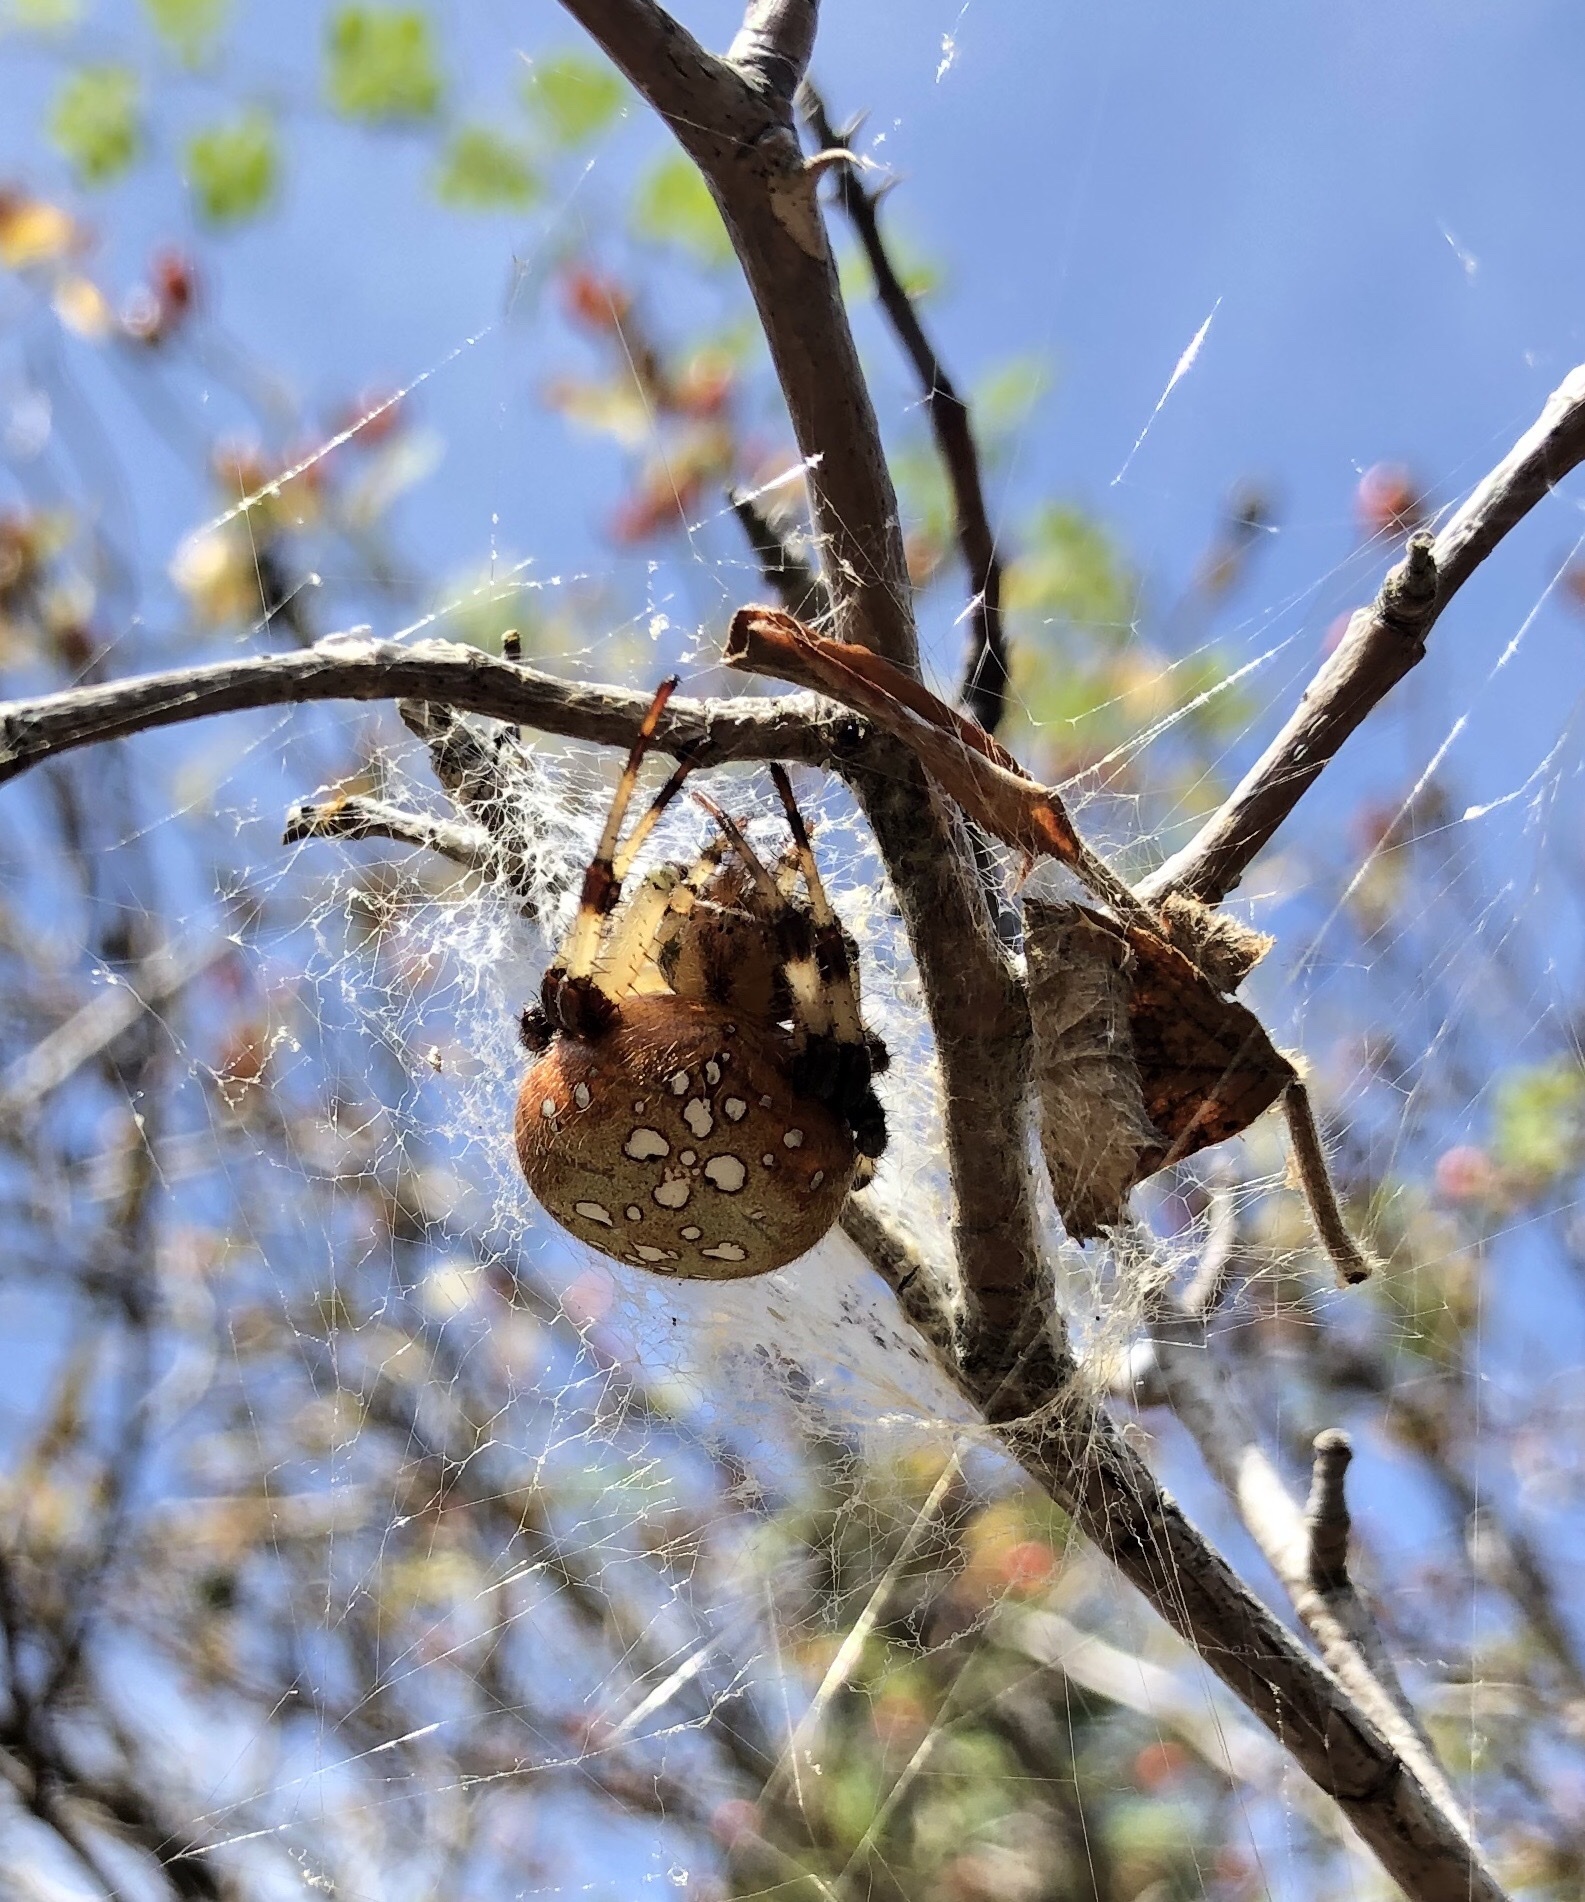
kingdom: Animalia
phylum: Arthropoda
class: Arachnida
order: Araneae
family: Araneidae
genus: Araneus
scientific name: Araneus trifolium
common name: Shamrock orbweaver
